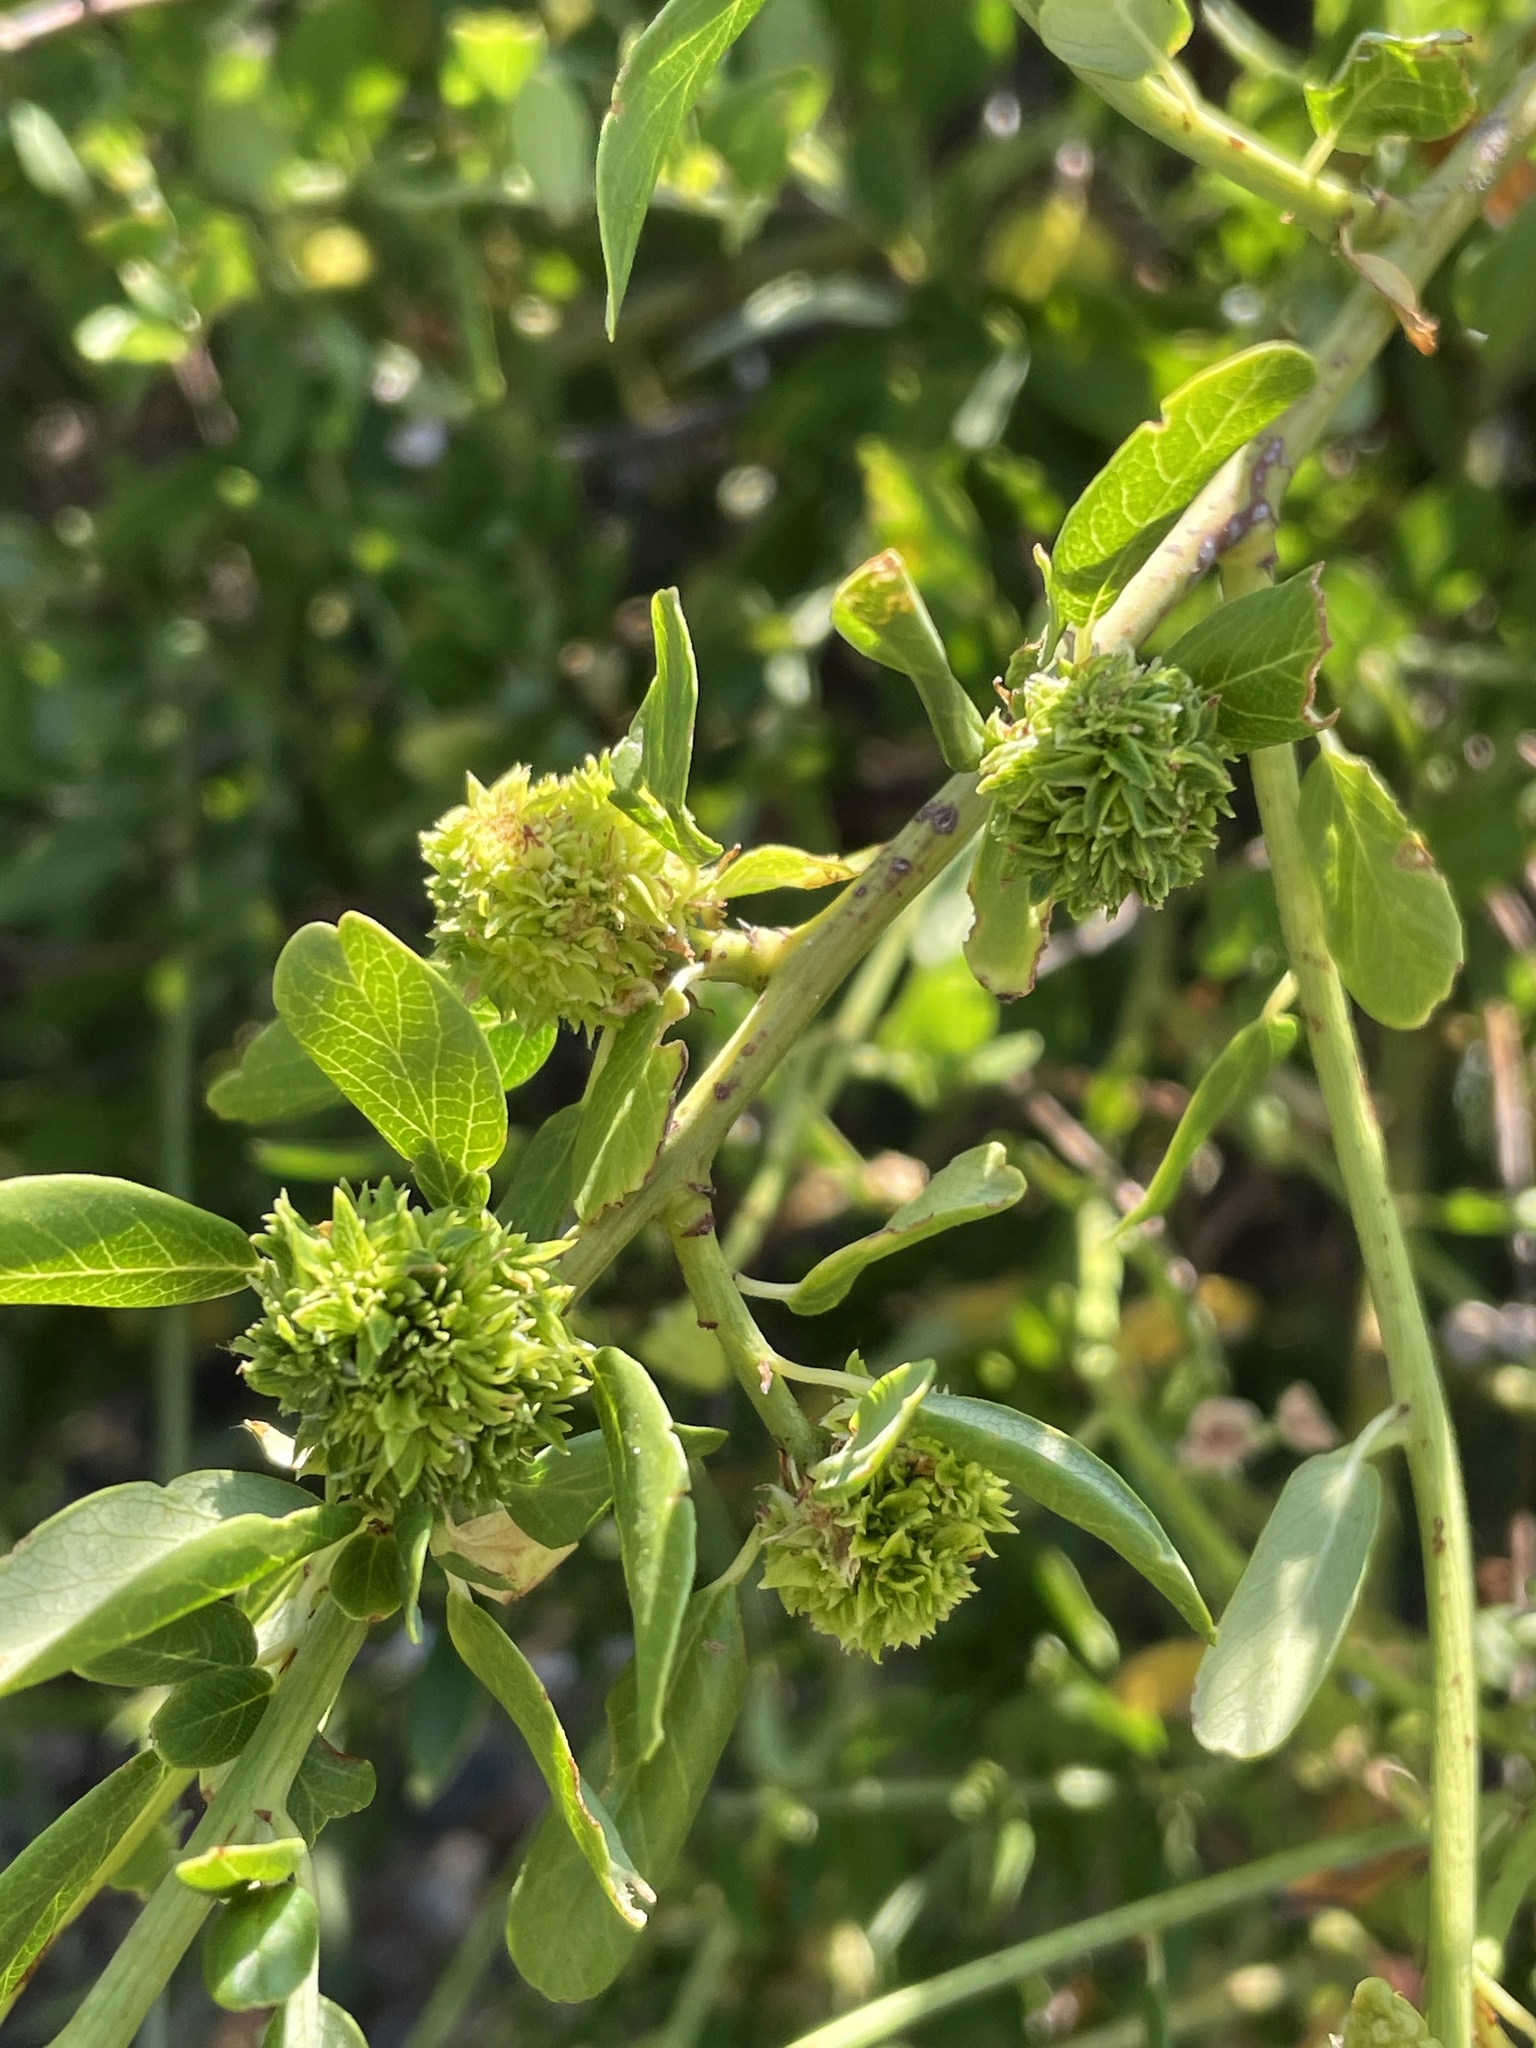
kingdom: Plantae
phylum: Tracheophyta
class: Magnoliopsida
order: Rosales
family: Rhamnaceae
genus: Ceanothus
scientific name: Ceanothus palmeri
